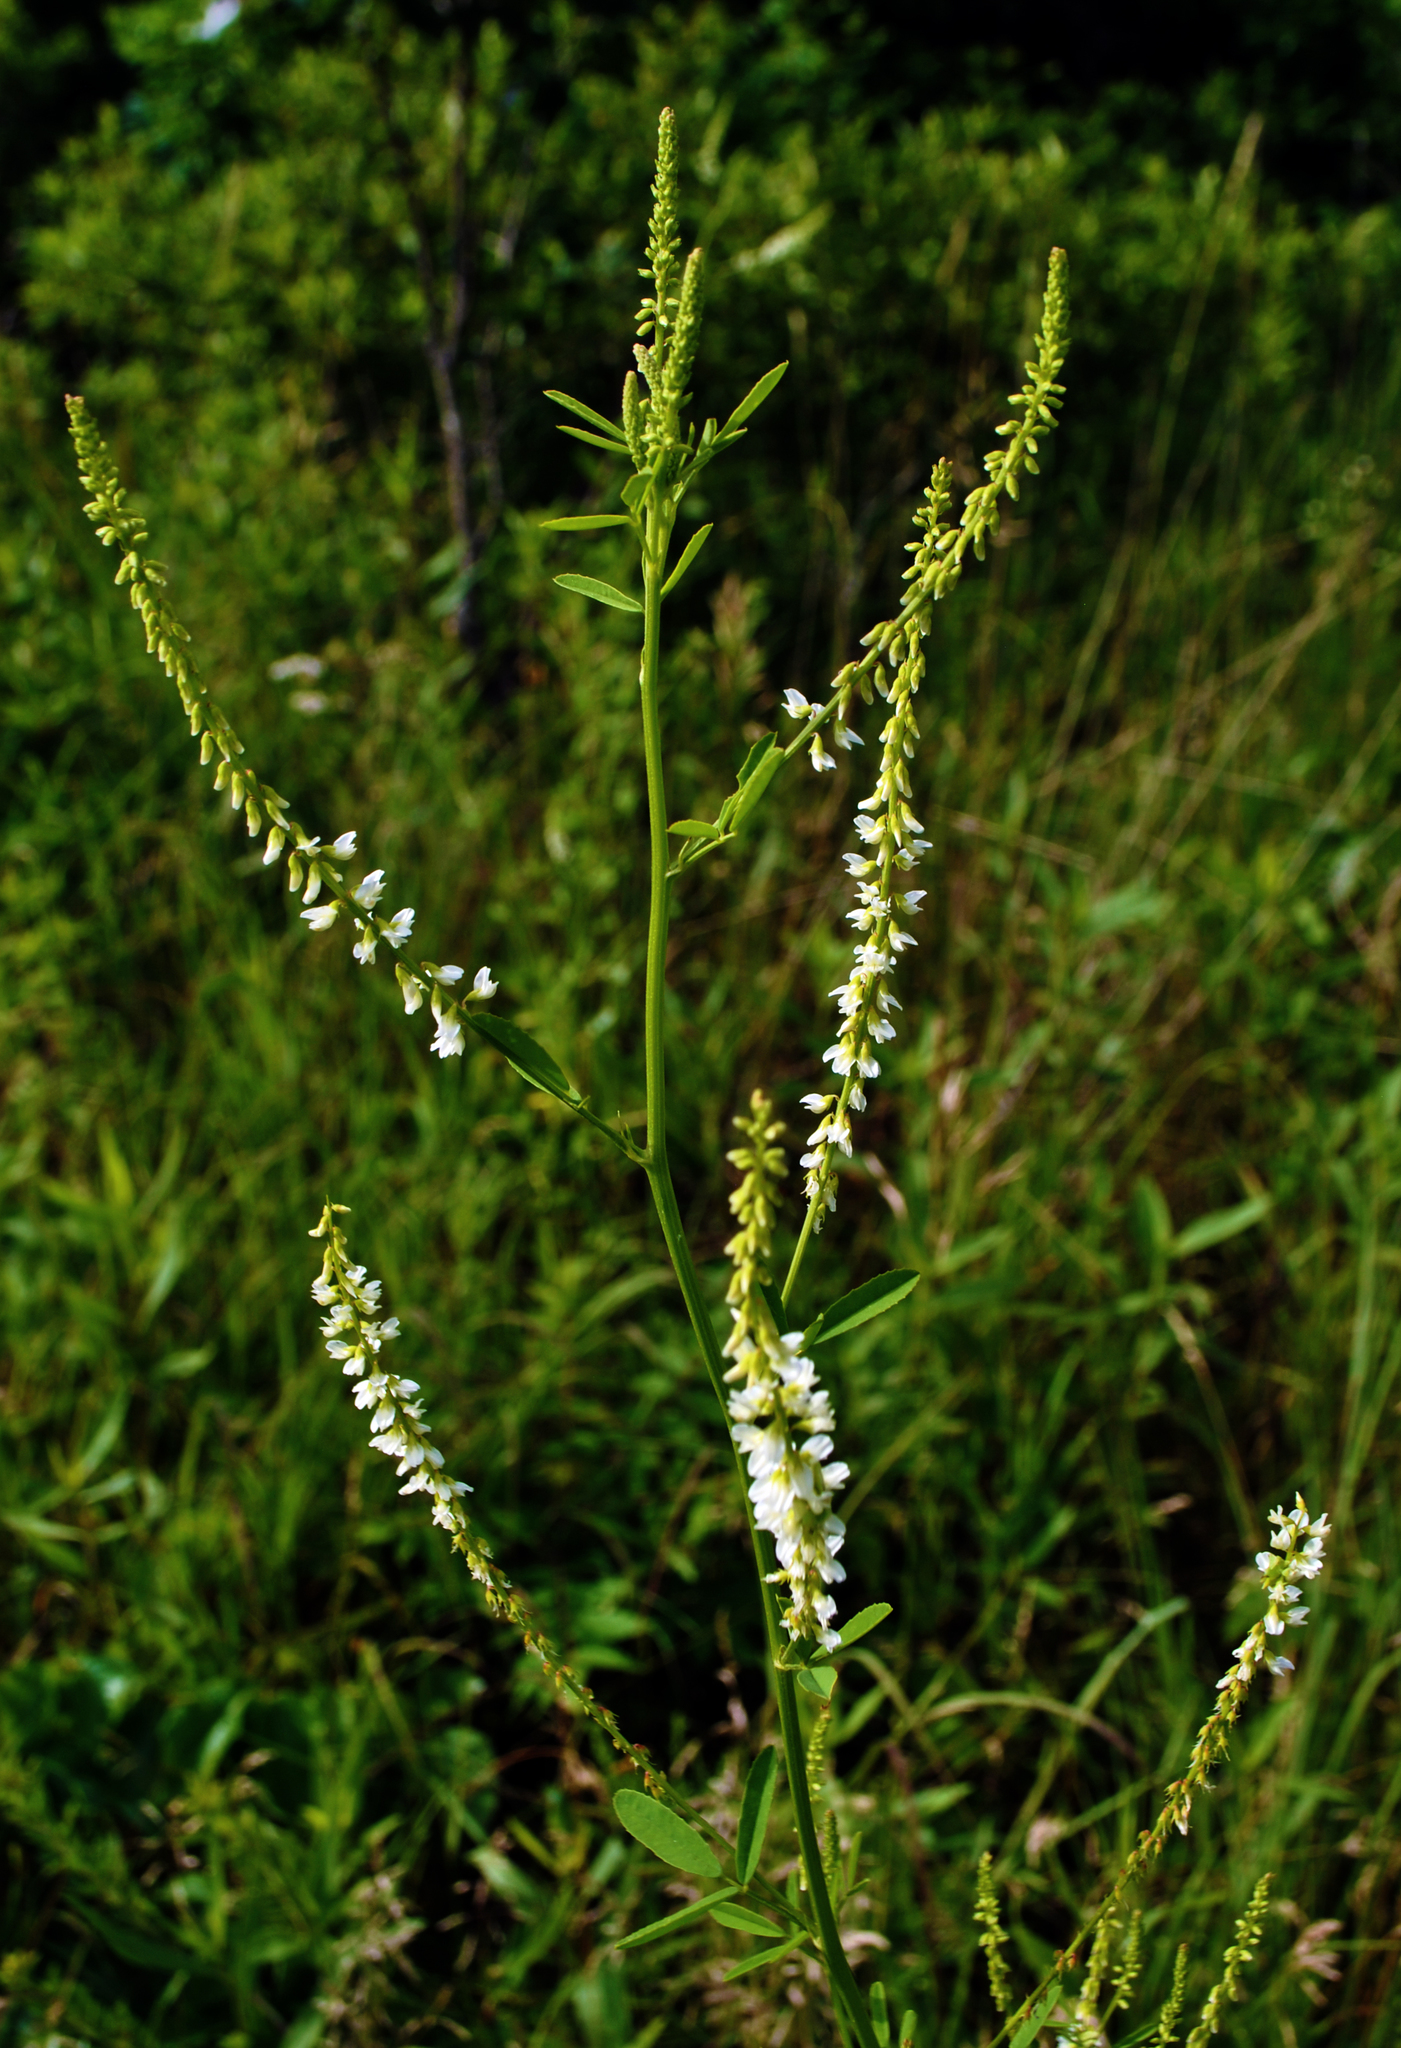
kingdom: Plantae
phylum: Tracheophyta
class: Magnoliopsida
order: Fabales
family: Fabaceae
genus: Melilotus
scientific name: Melilotus albus
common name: White melilot
